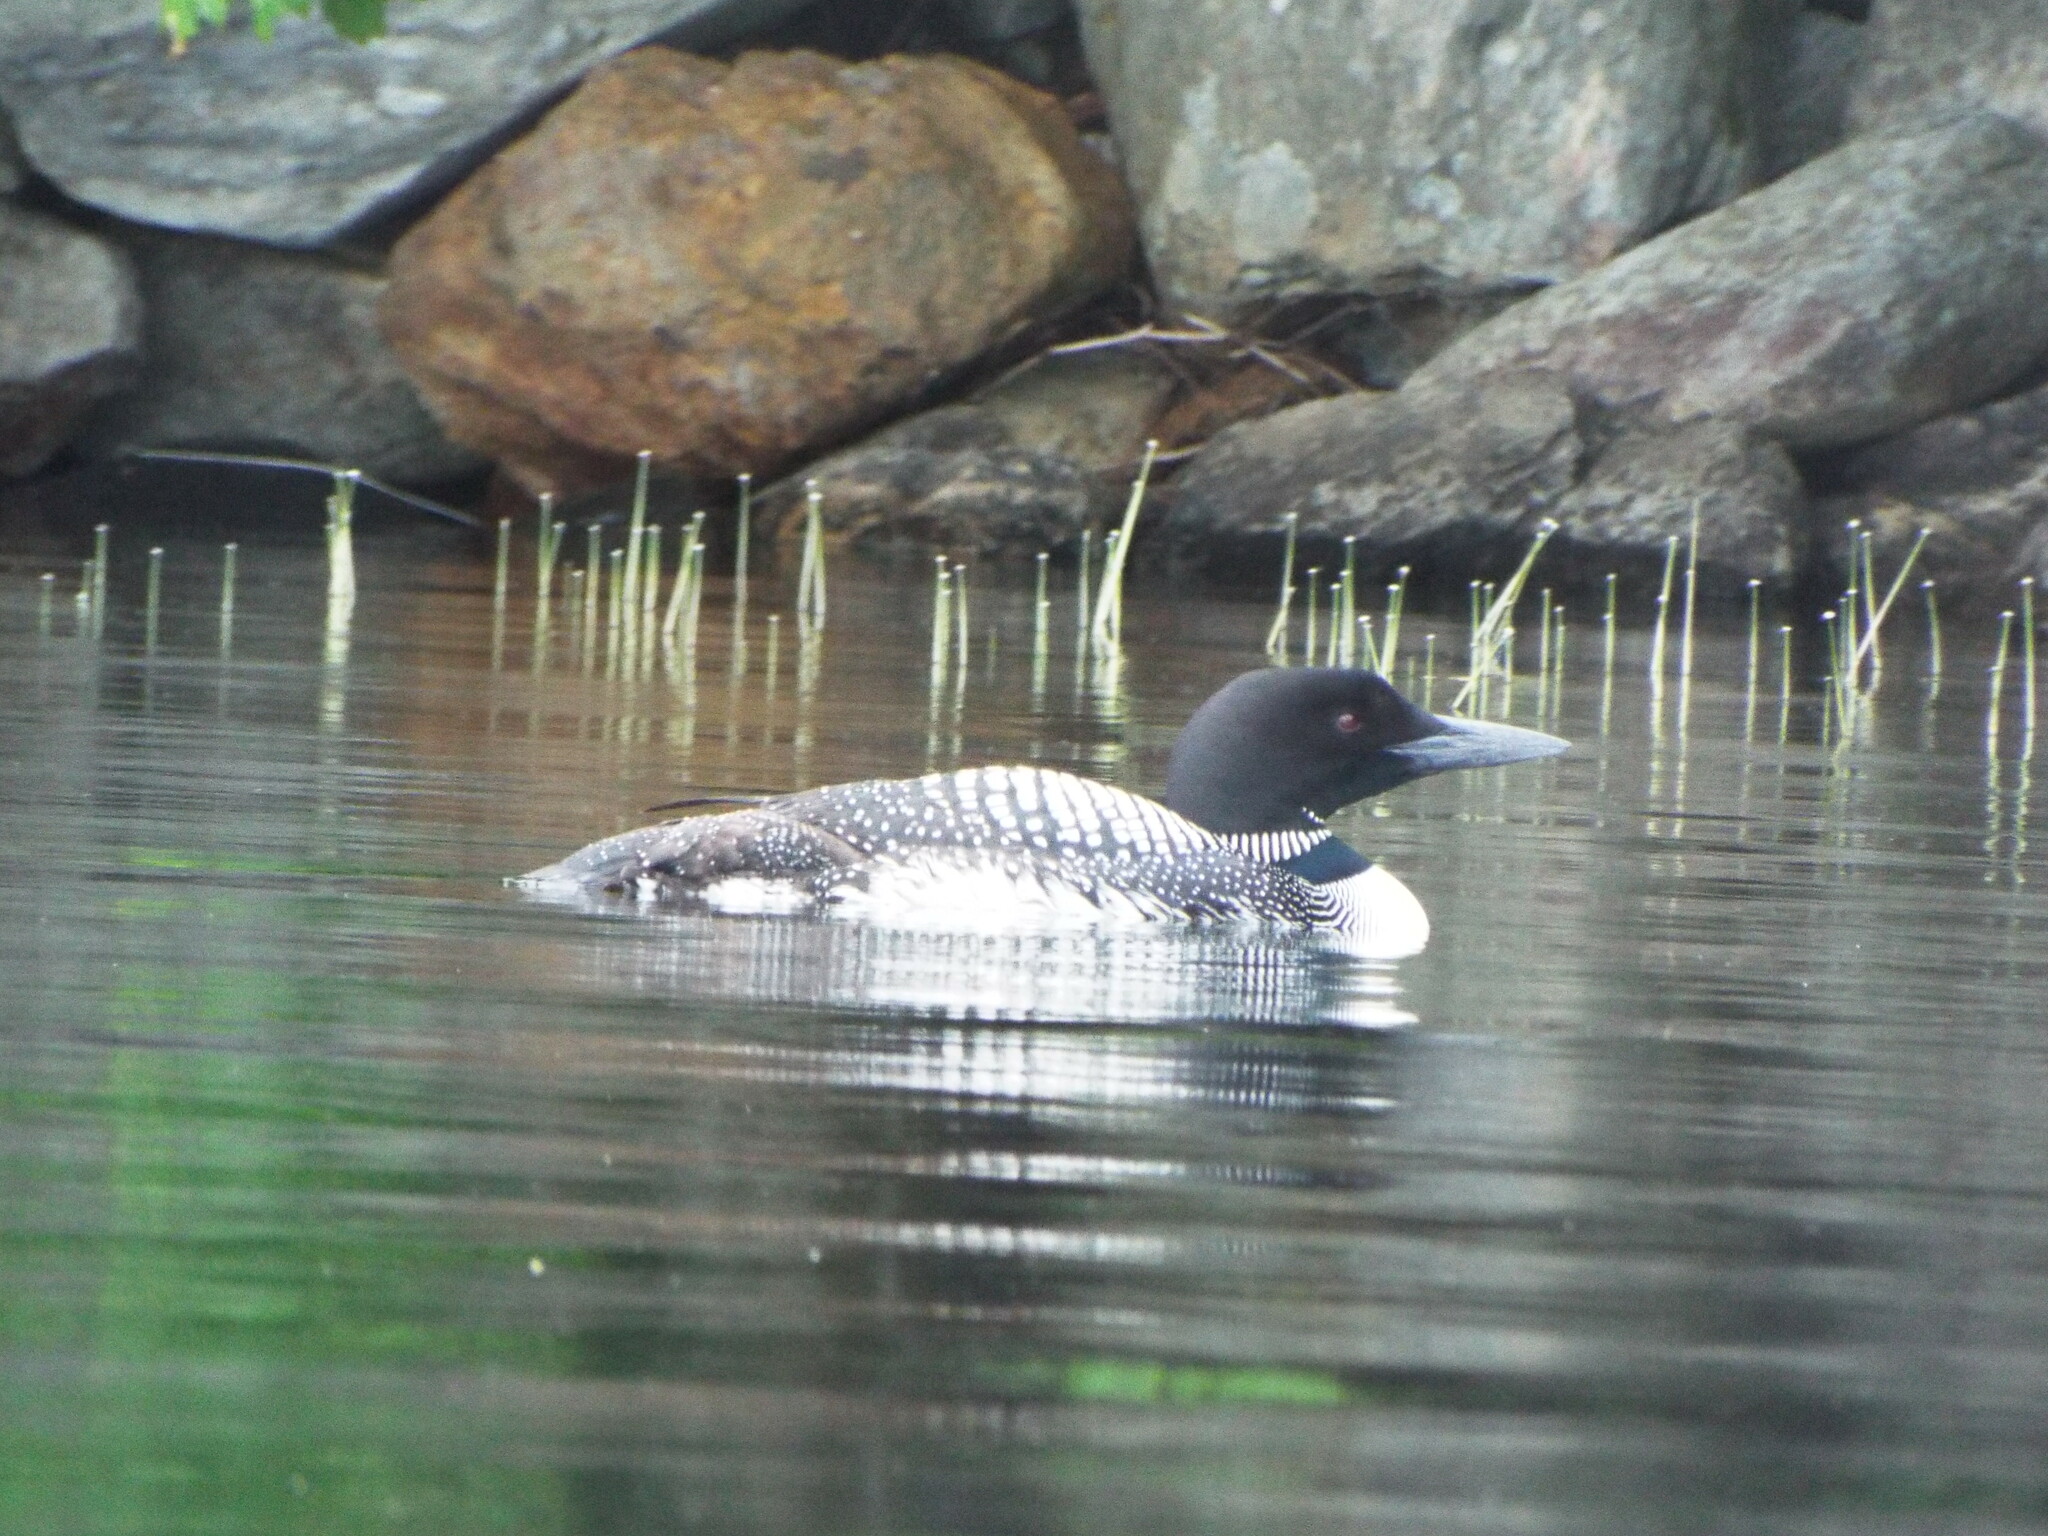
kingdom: Animalia
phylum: Chordata
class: Aves
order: Gaviiformes
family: Gaviidae
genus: Gavia
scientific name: Gavia immer
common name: Common loon
